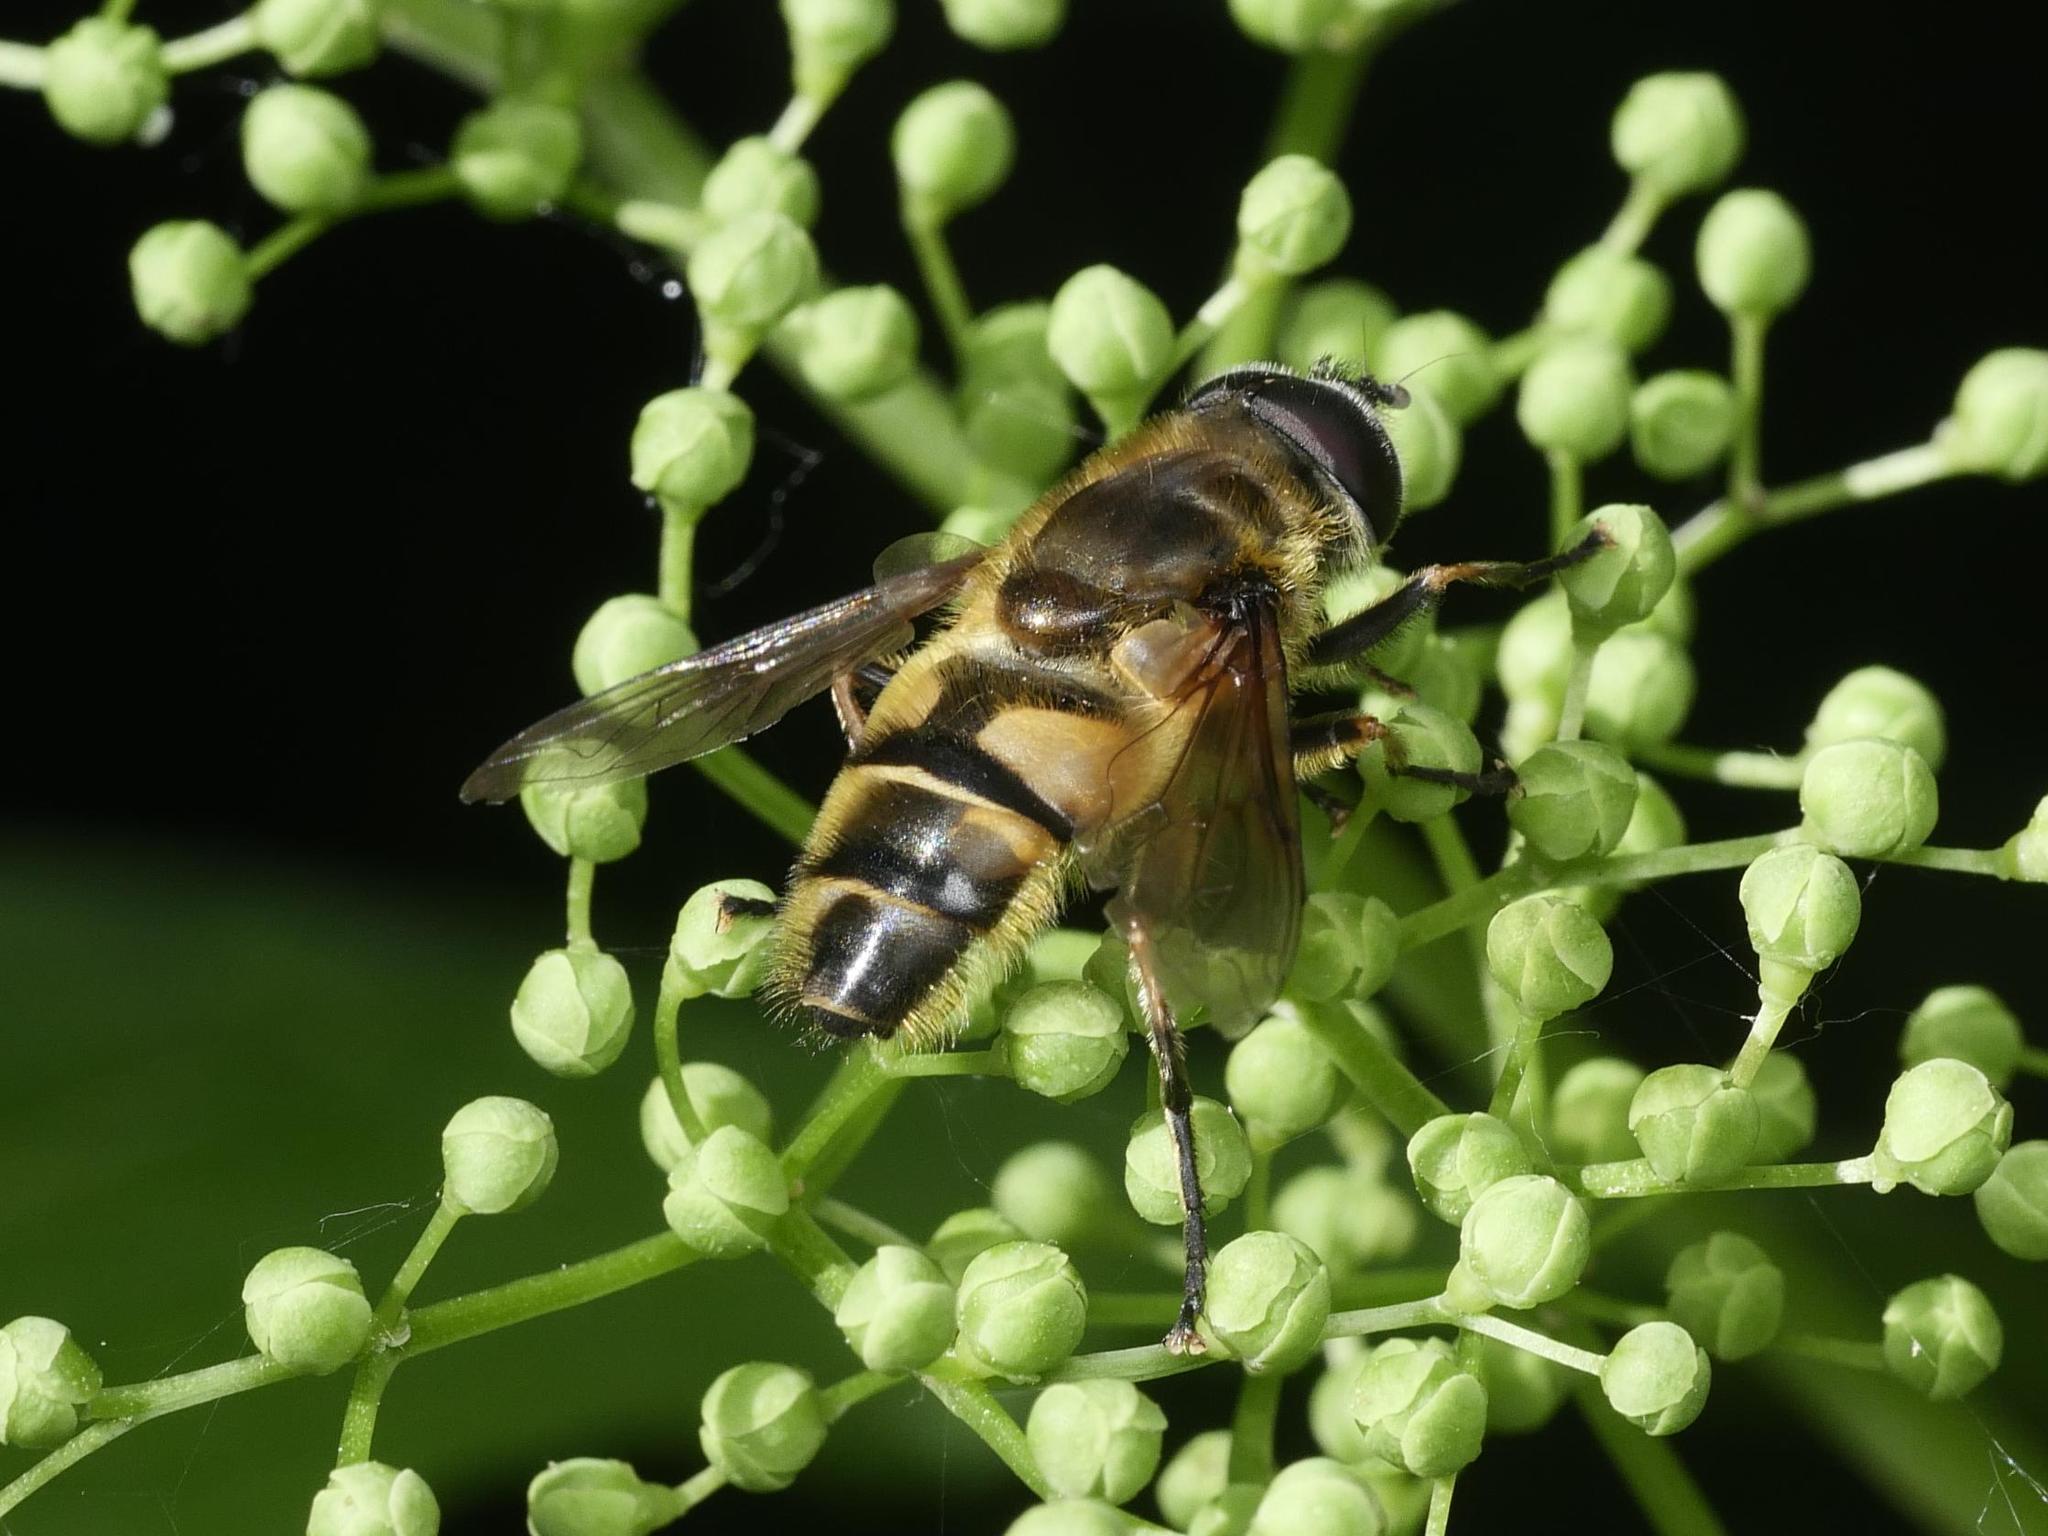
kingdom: Animalia
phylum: Arthropoda
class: Insecta
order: Diptera
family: Syrphidae
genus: Myathropa
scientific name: Myathropa florea
